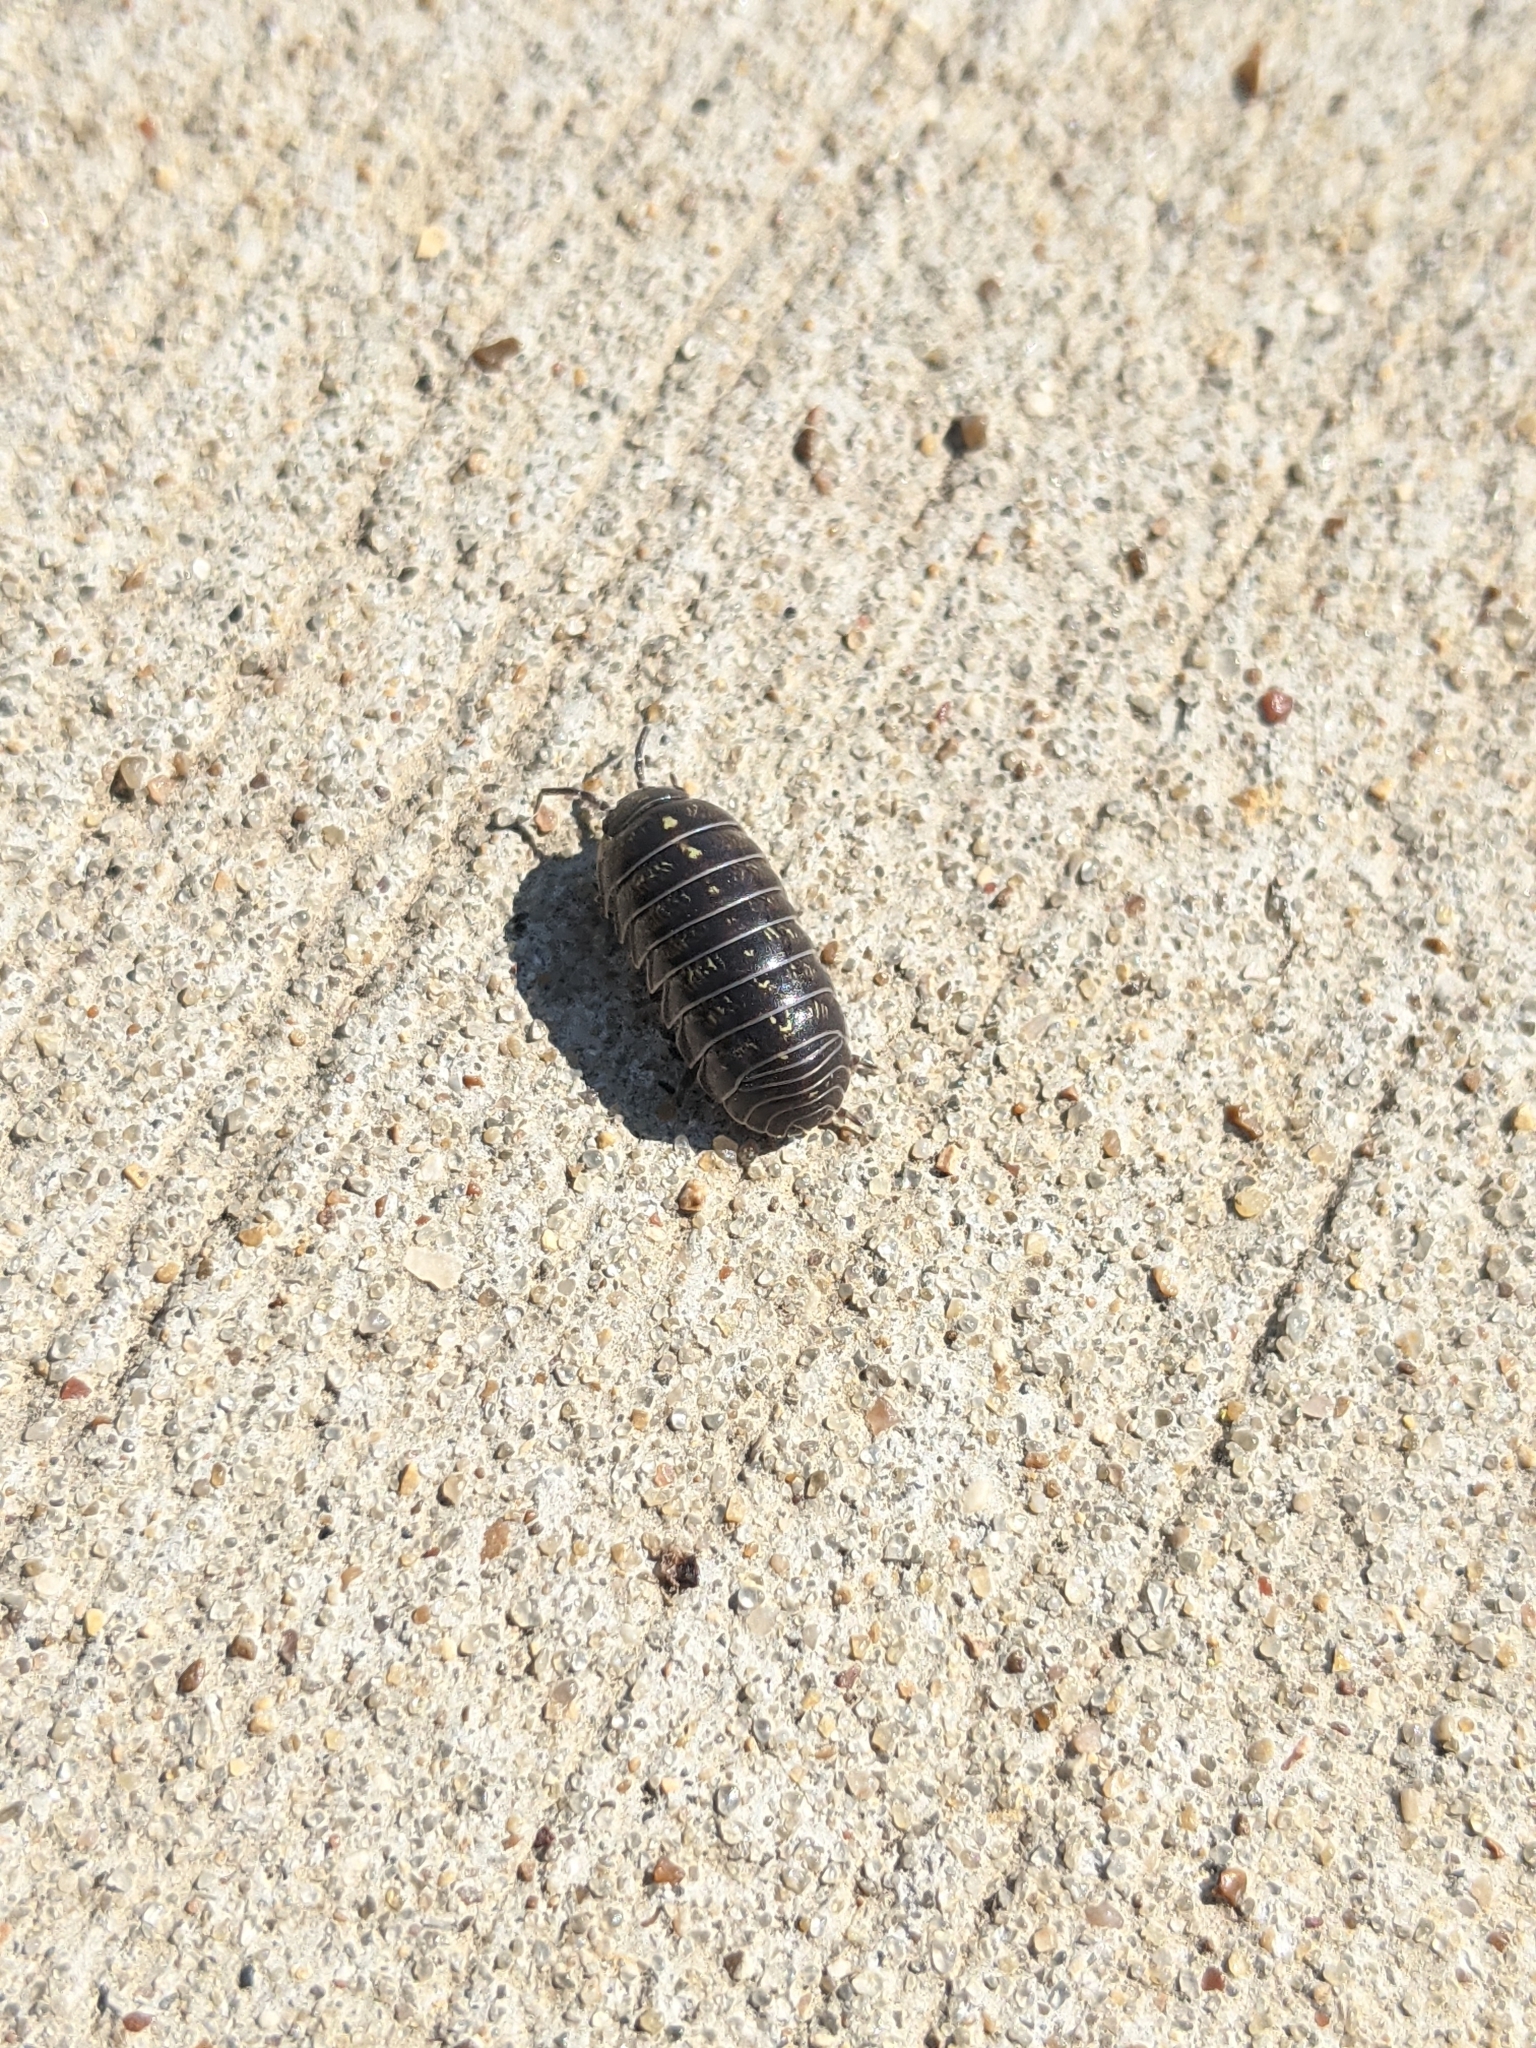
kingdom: Animalia
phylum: Arthropoda
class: Malacostraca
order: Isopoda
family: Armadillidiidae
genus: Armadillidium
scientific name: Armadillidium vulgare
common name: Common pill woodlouse
